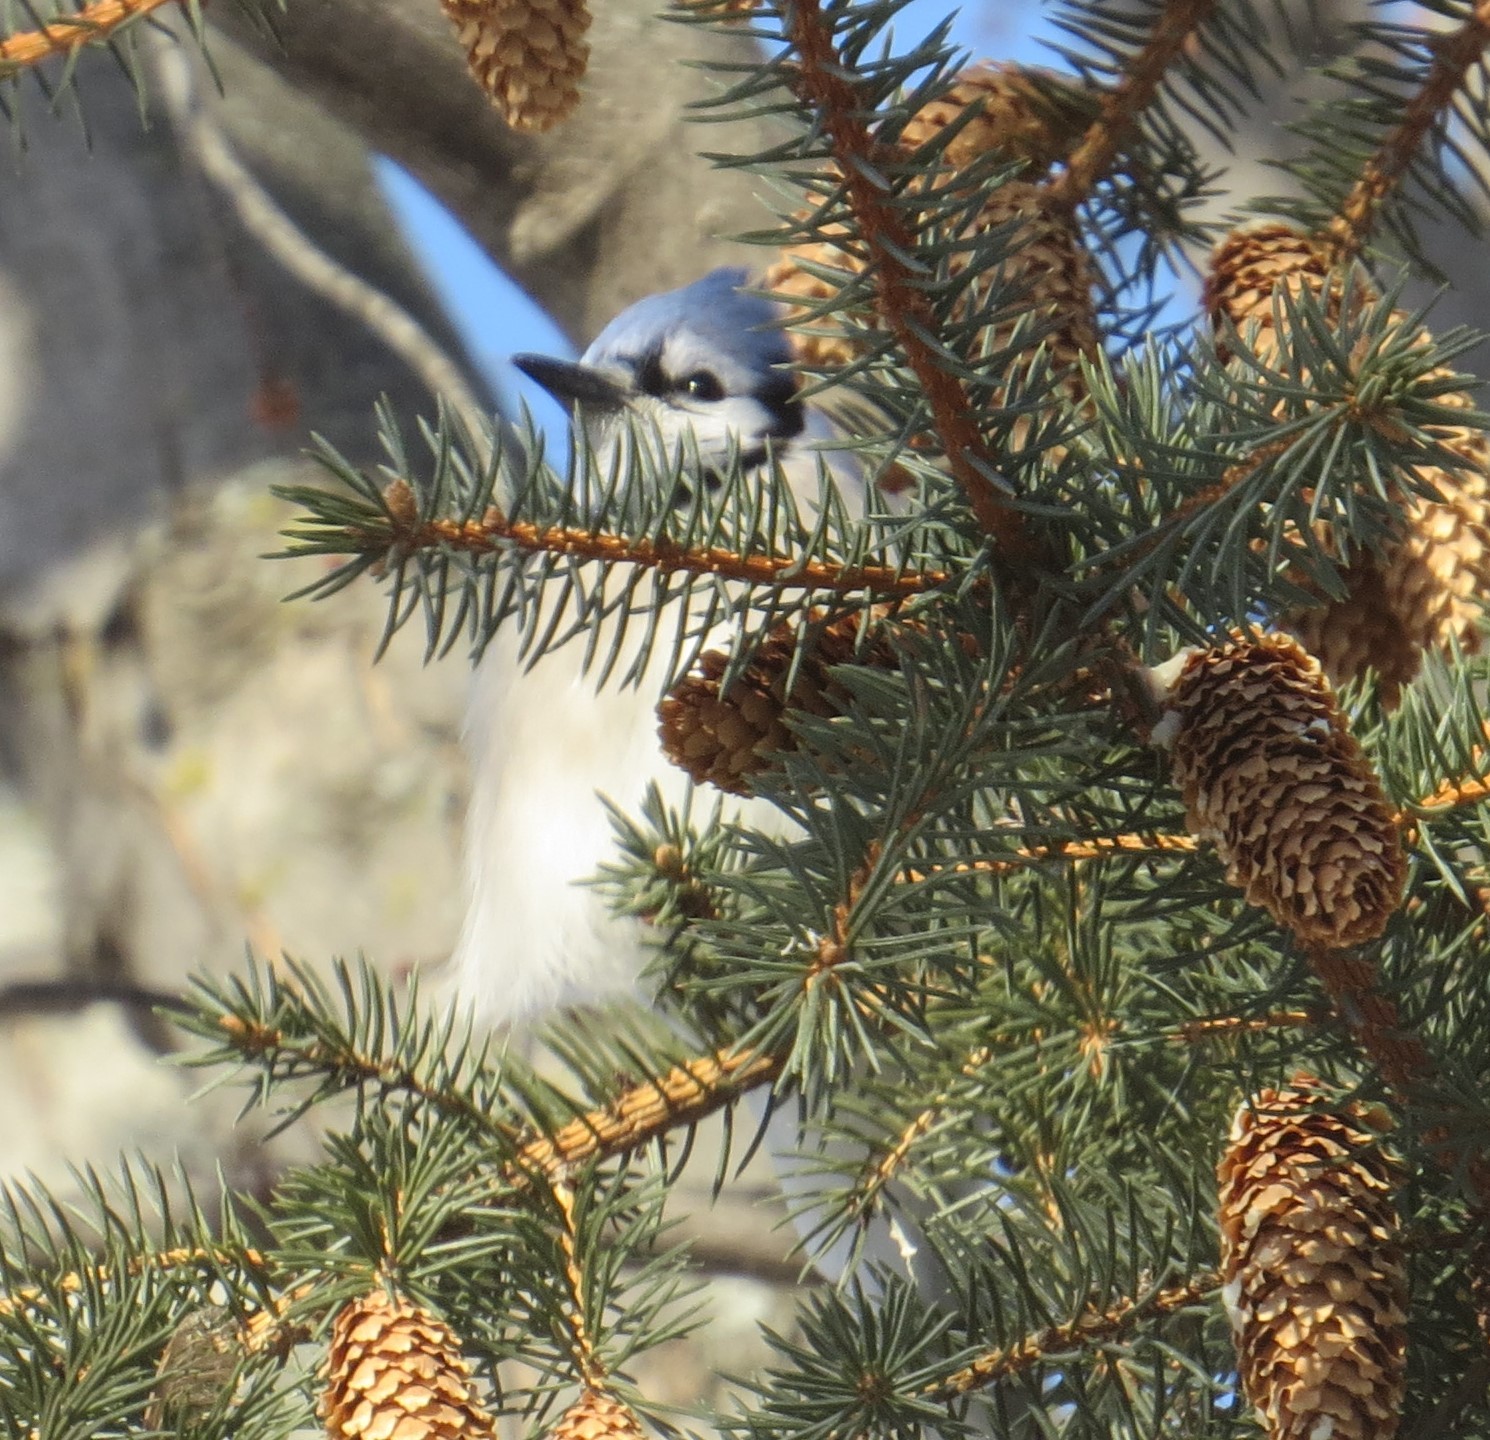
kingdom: Animalia
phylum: Chordata
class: Aves
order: Passeriformes
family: Corvidae
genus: Cyanocitta
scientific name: Cyanocitta cristata
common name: Blue jay
